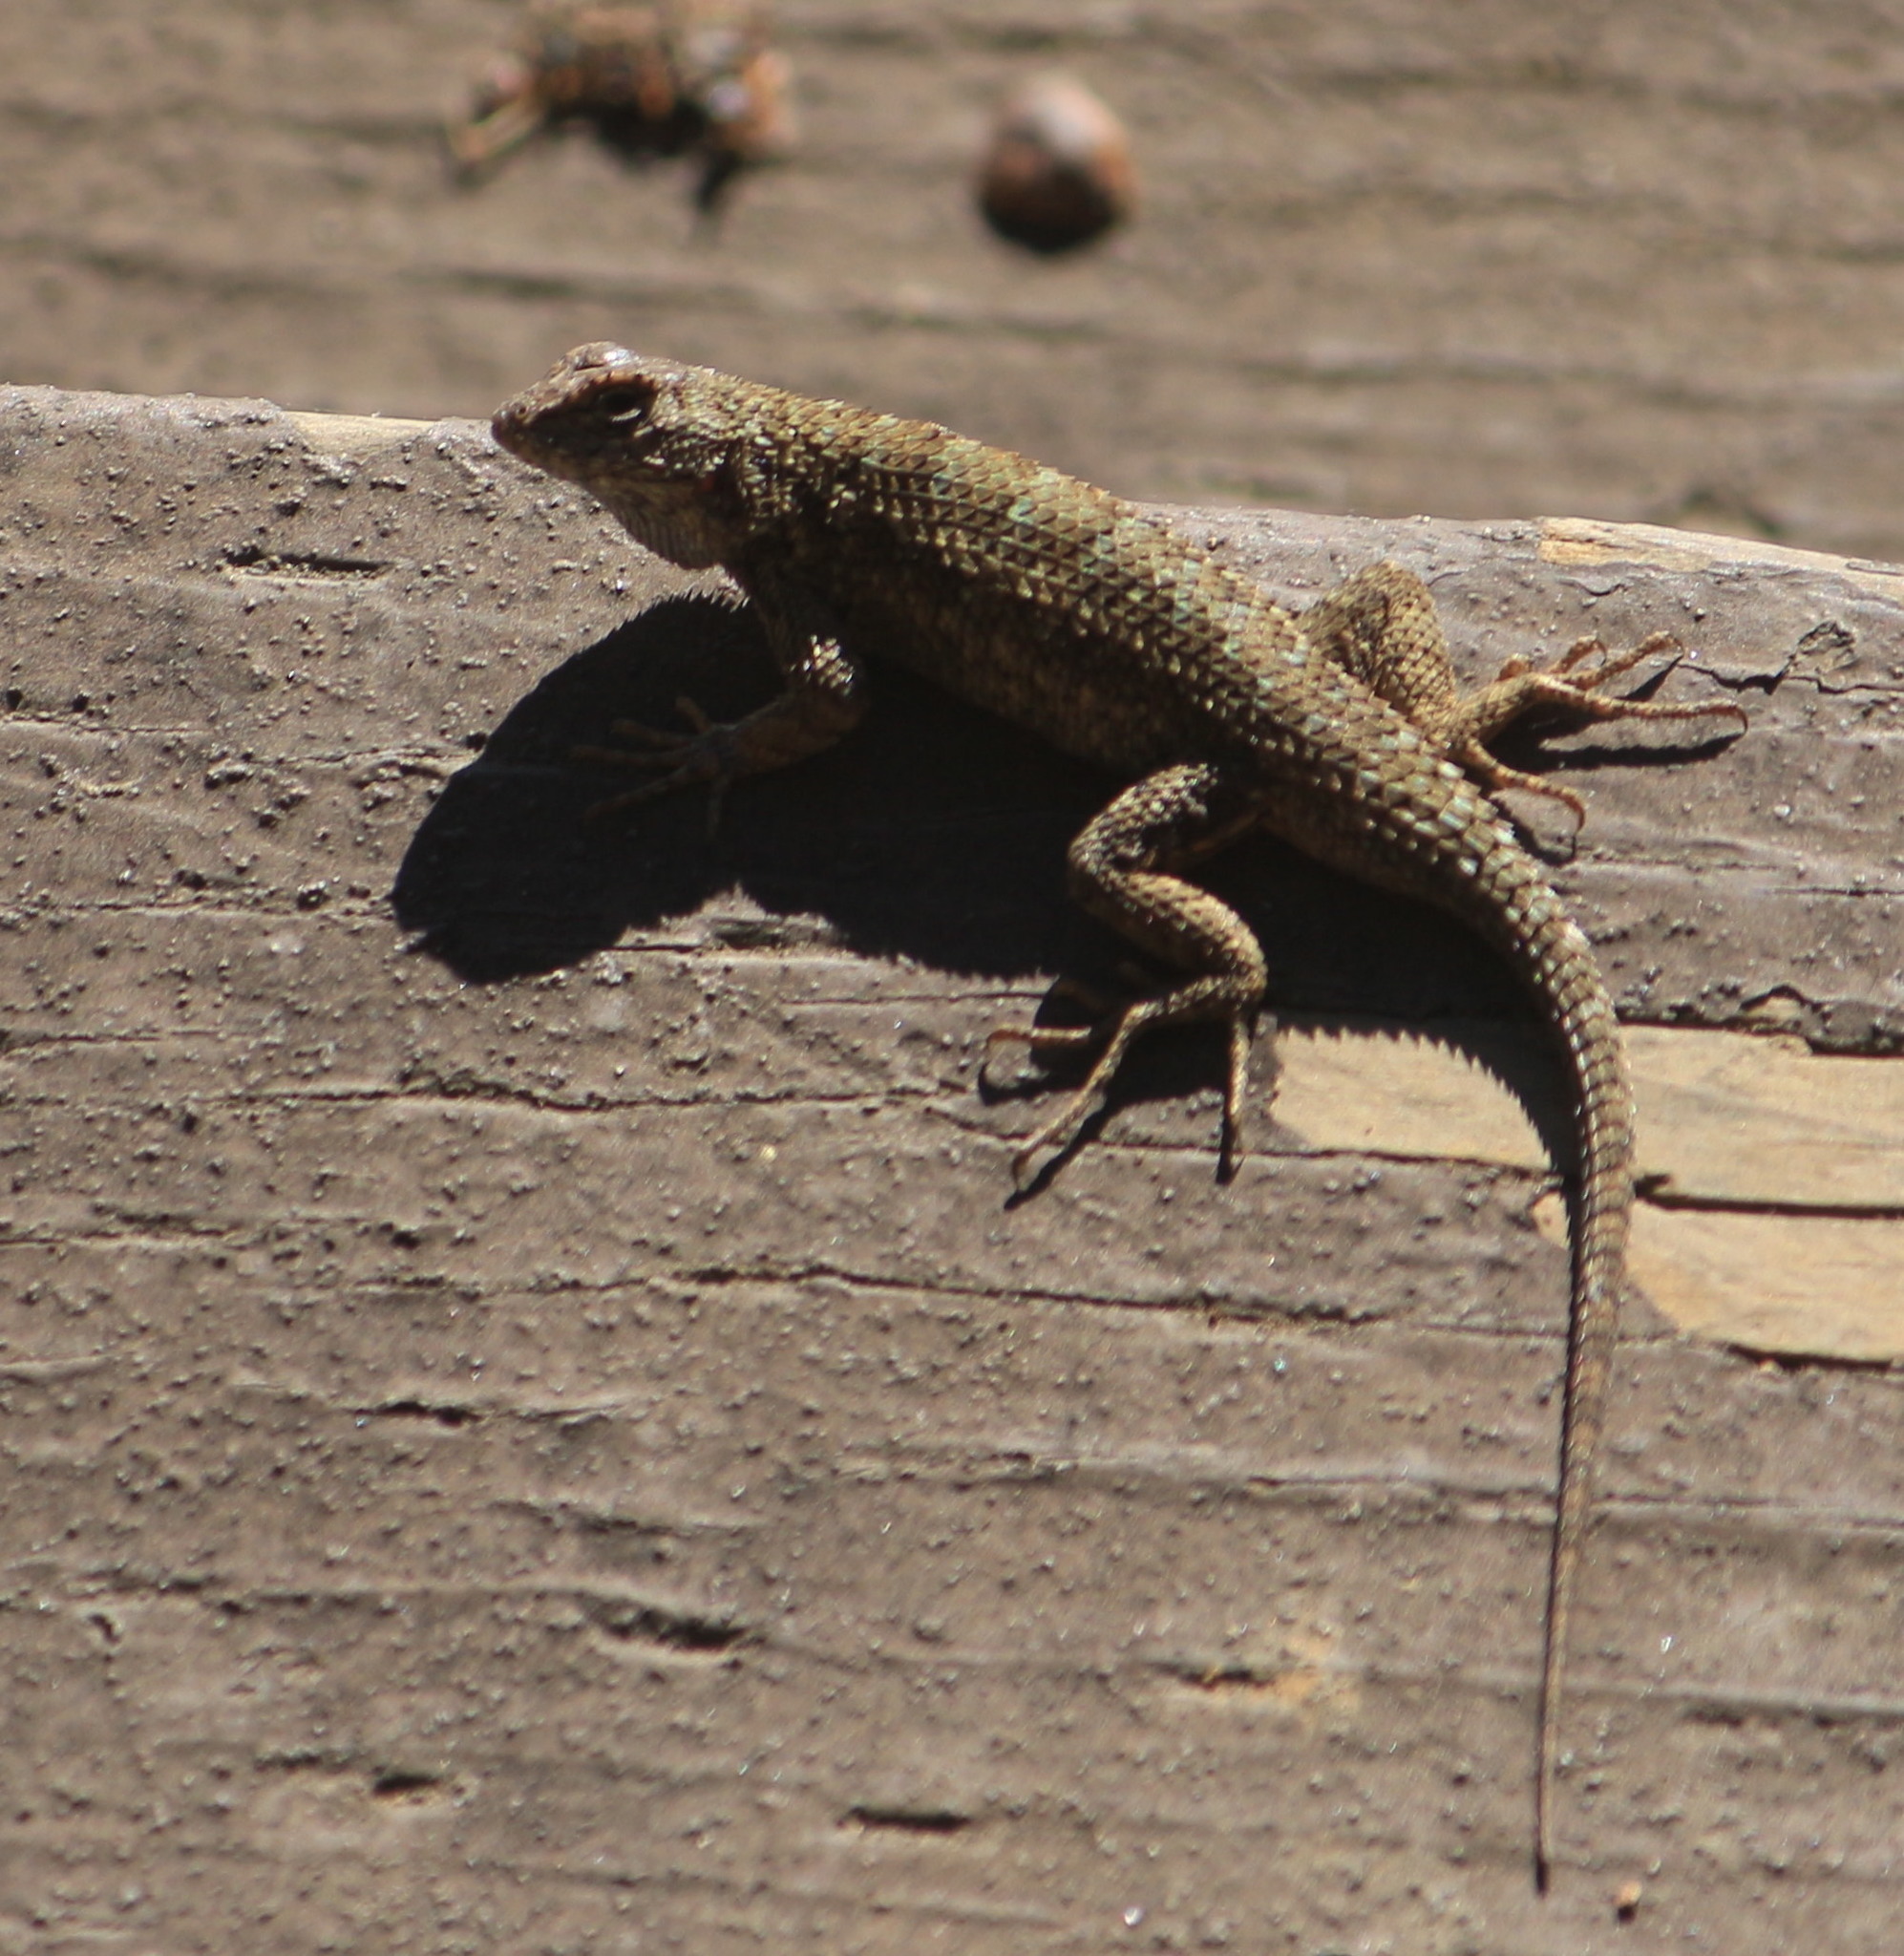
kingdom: Animalia
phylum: Chordata
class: Squamata
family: Phrynosomatidae
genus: Sceloporus
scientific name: Sceloporus occidentalis
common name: Western fence lizard
